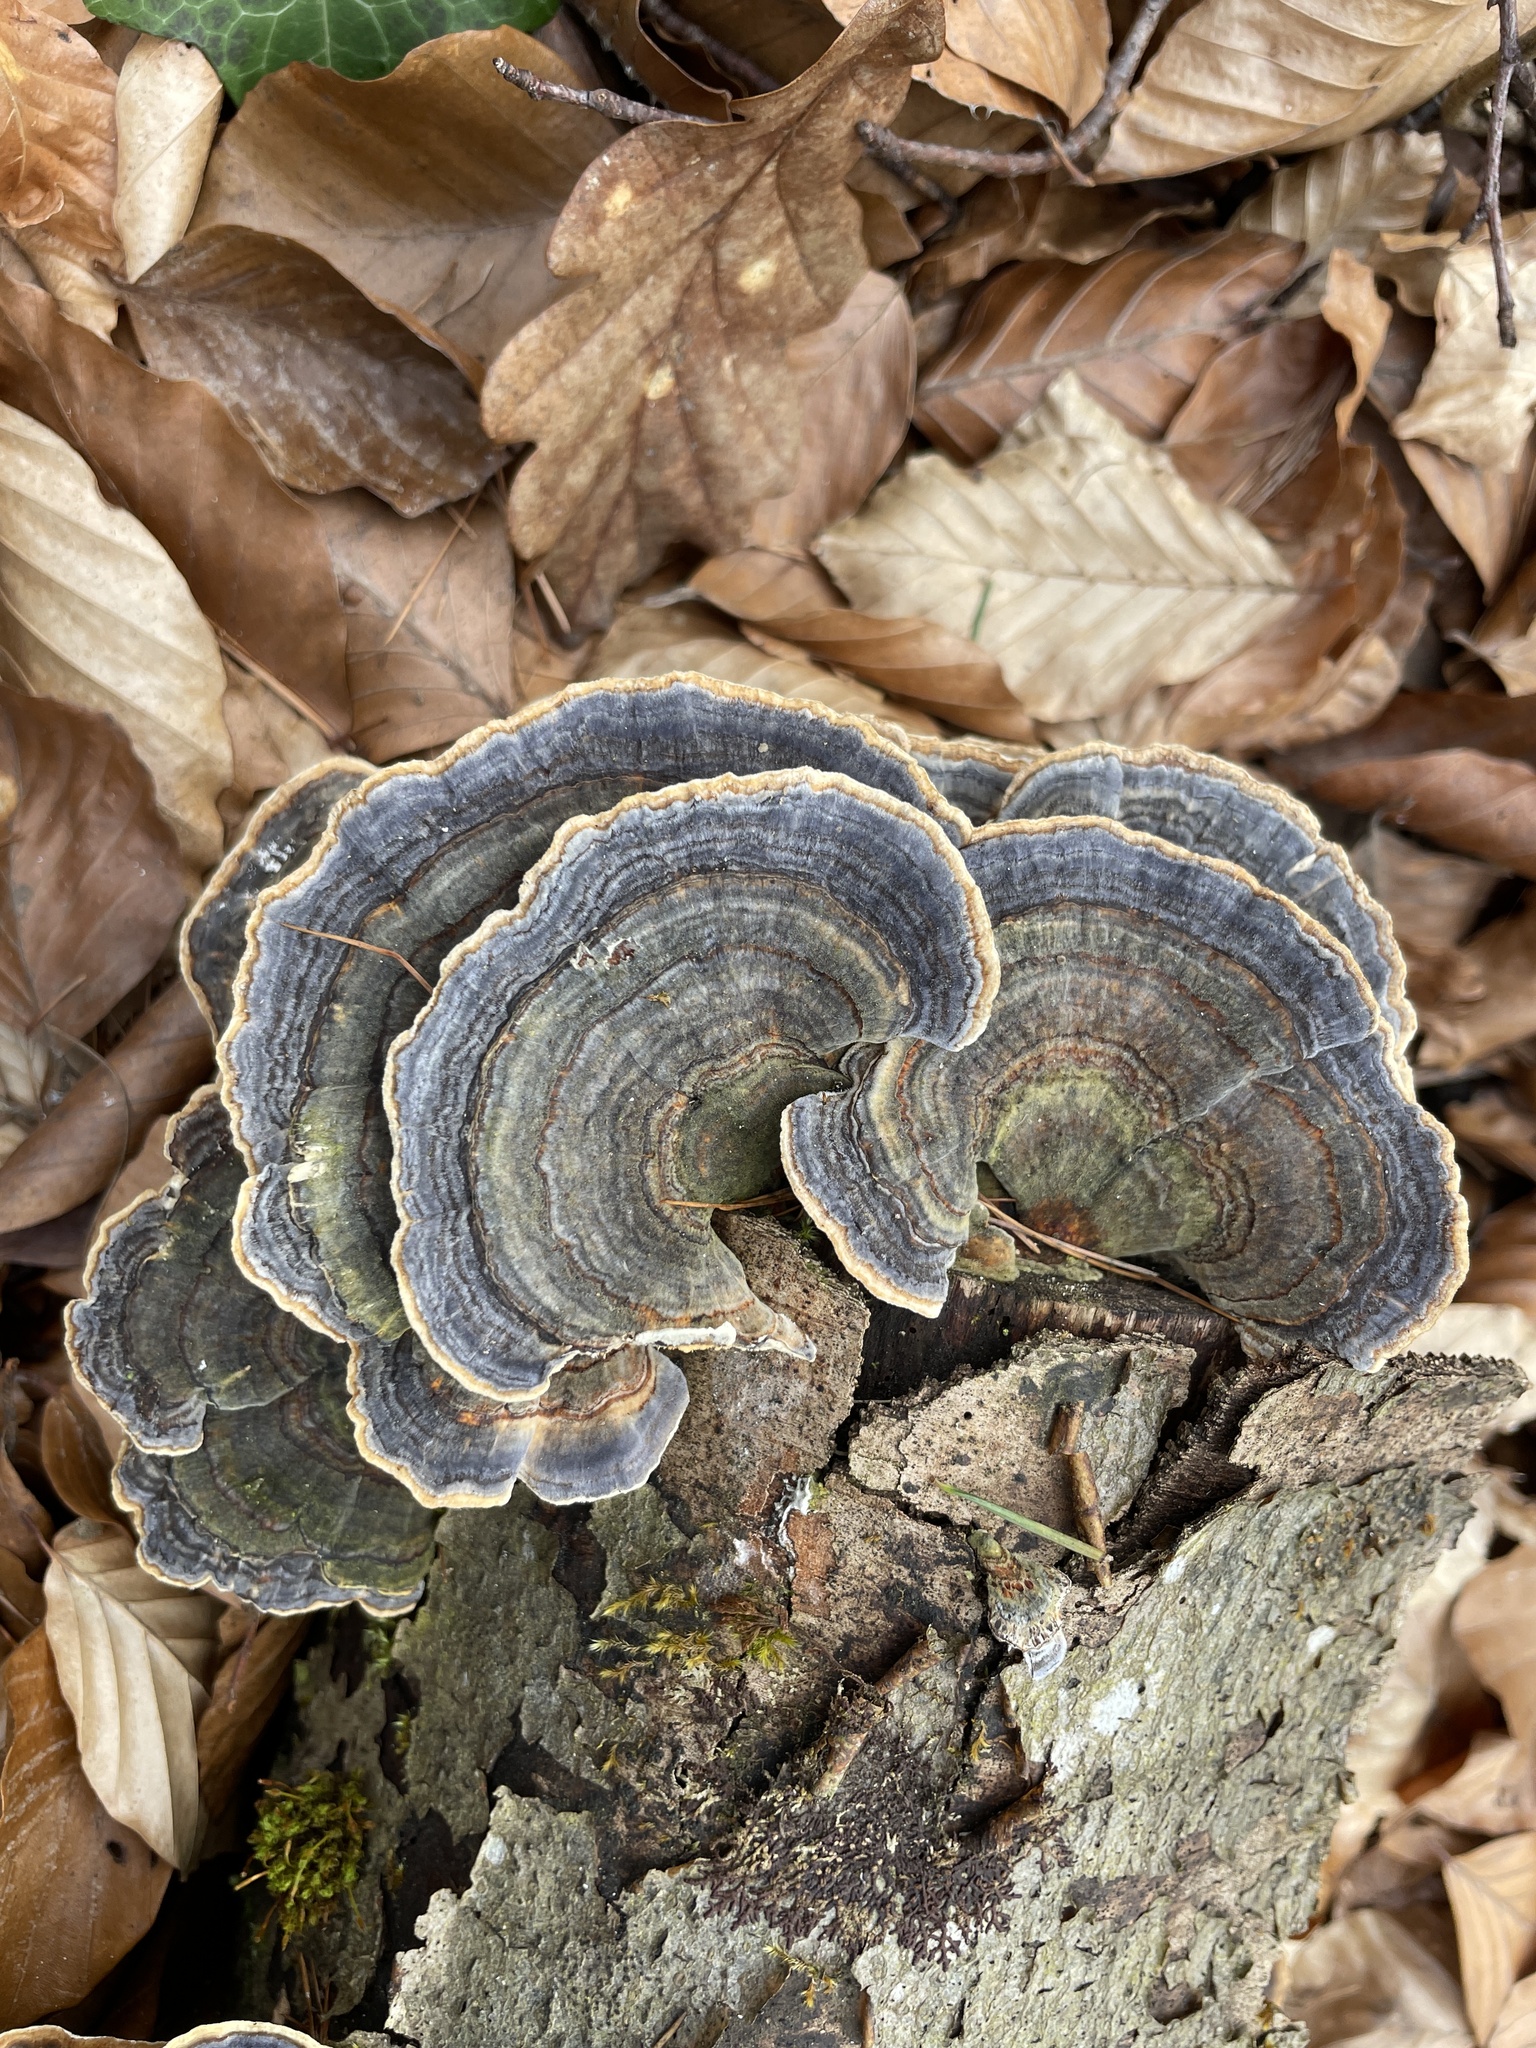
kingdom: Fungi
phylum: Basidiomycota
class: Agaricomycetes
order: Polyporales
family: Polyporaceae
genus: Trametes
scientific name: Trametes versicolor
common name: Turkeytail
